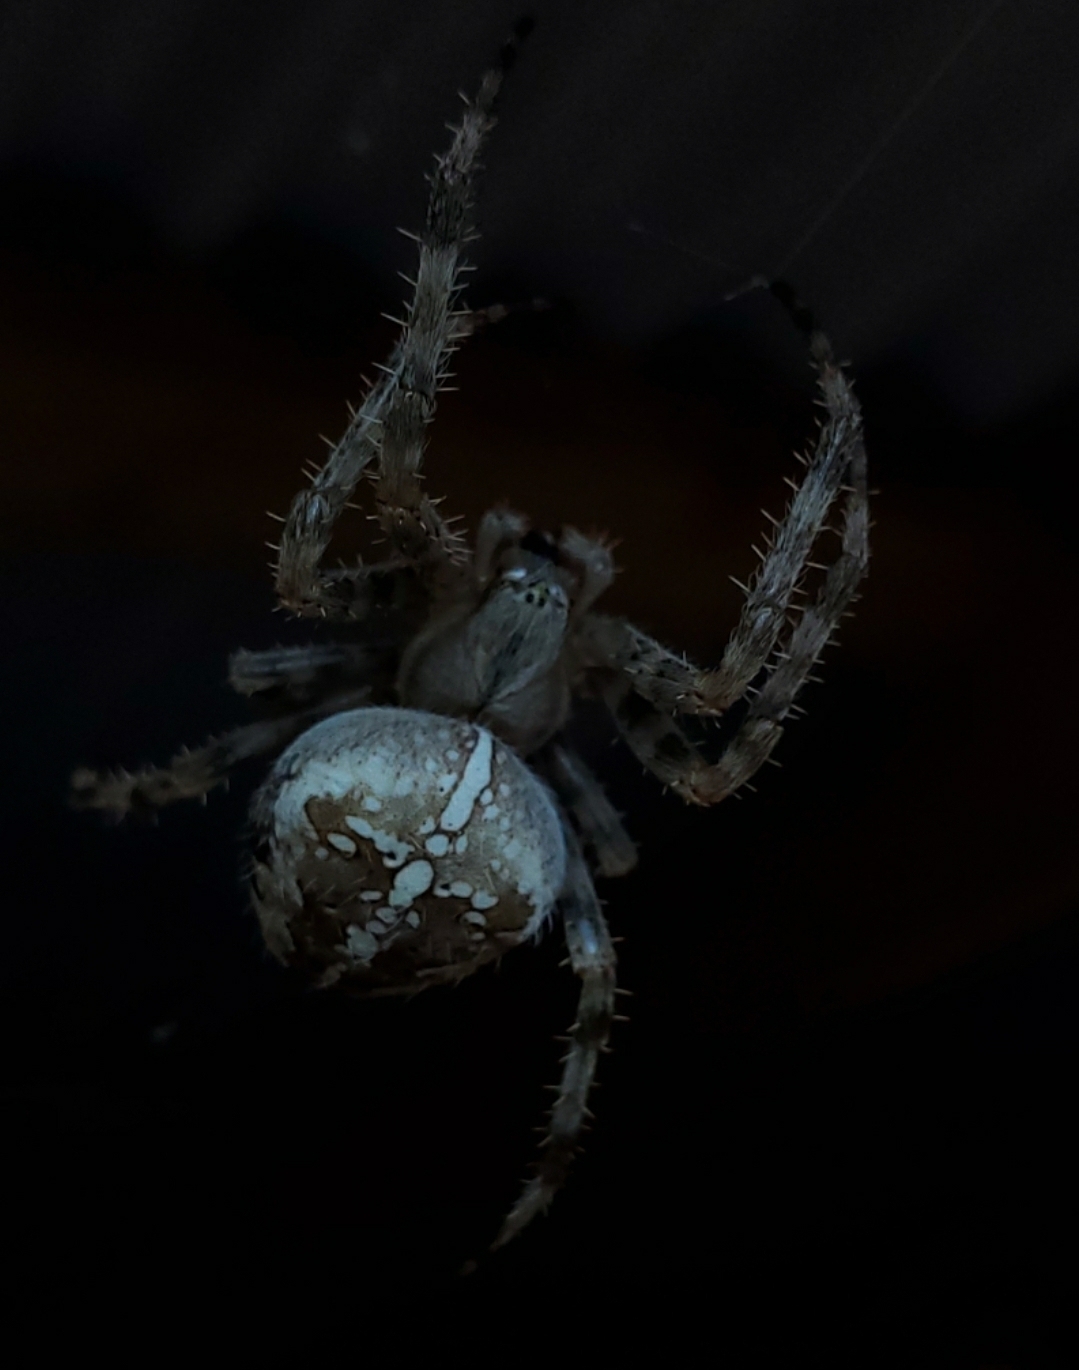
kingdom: Animalia
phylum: Arthropoda
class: Arachnida
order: Araneae
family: Araneidae
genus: Araneus
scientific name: Araneus diadematus
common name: Cross orbweaver
